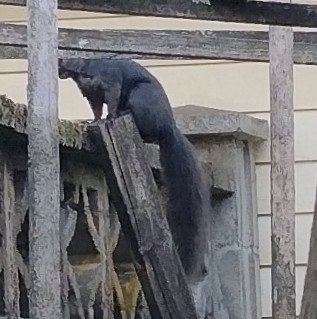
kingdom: Animalia
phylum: Chordata
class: Mammalia
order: Rodentia
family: Sciuridae
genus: Sciurus
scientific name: Sciurus carolinensis
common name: Eastern gray squirrel
